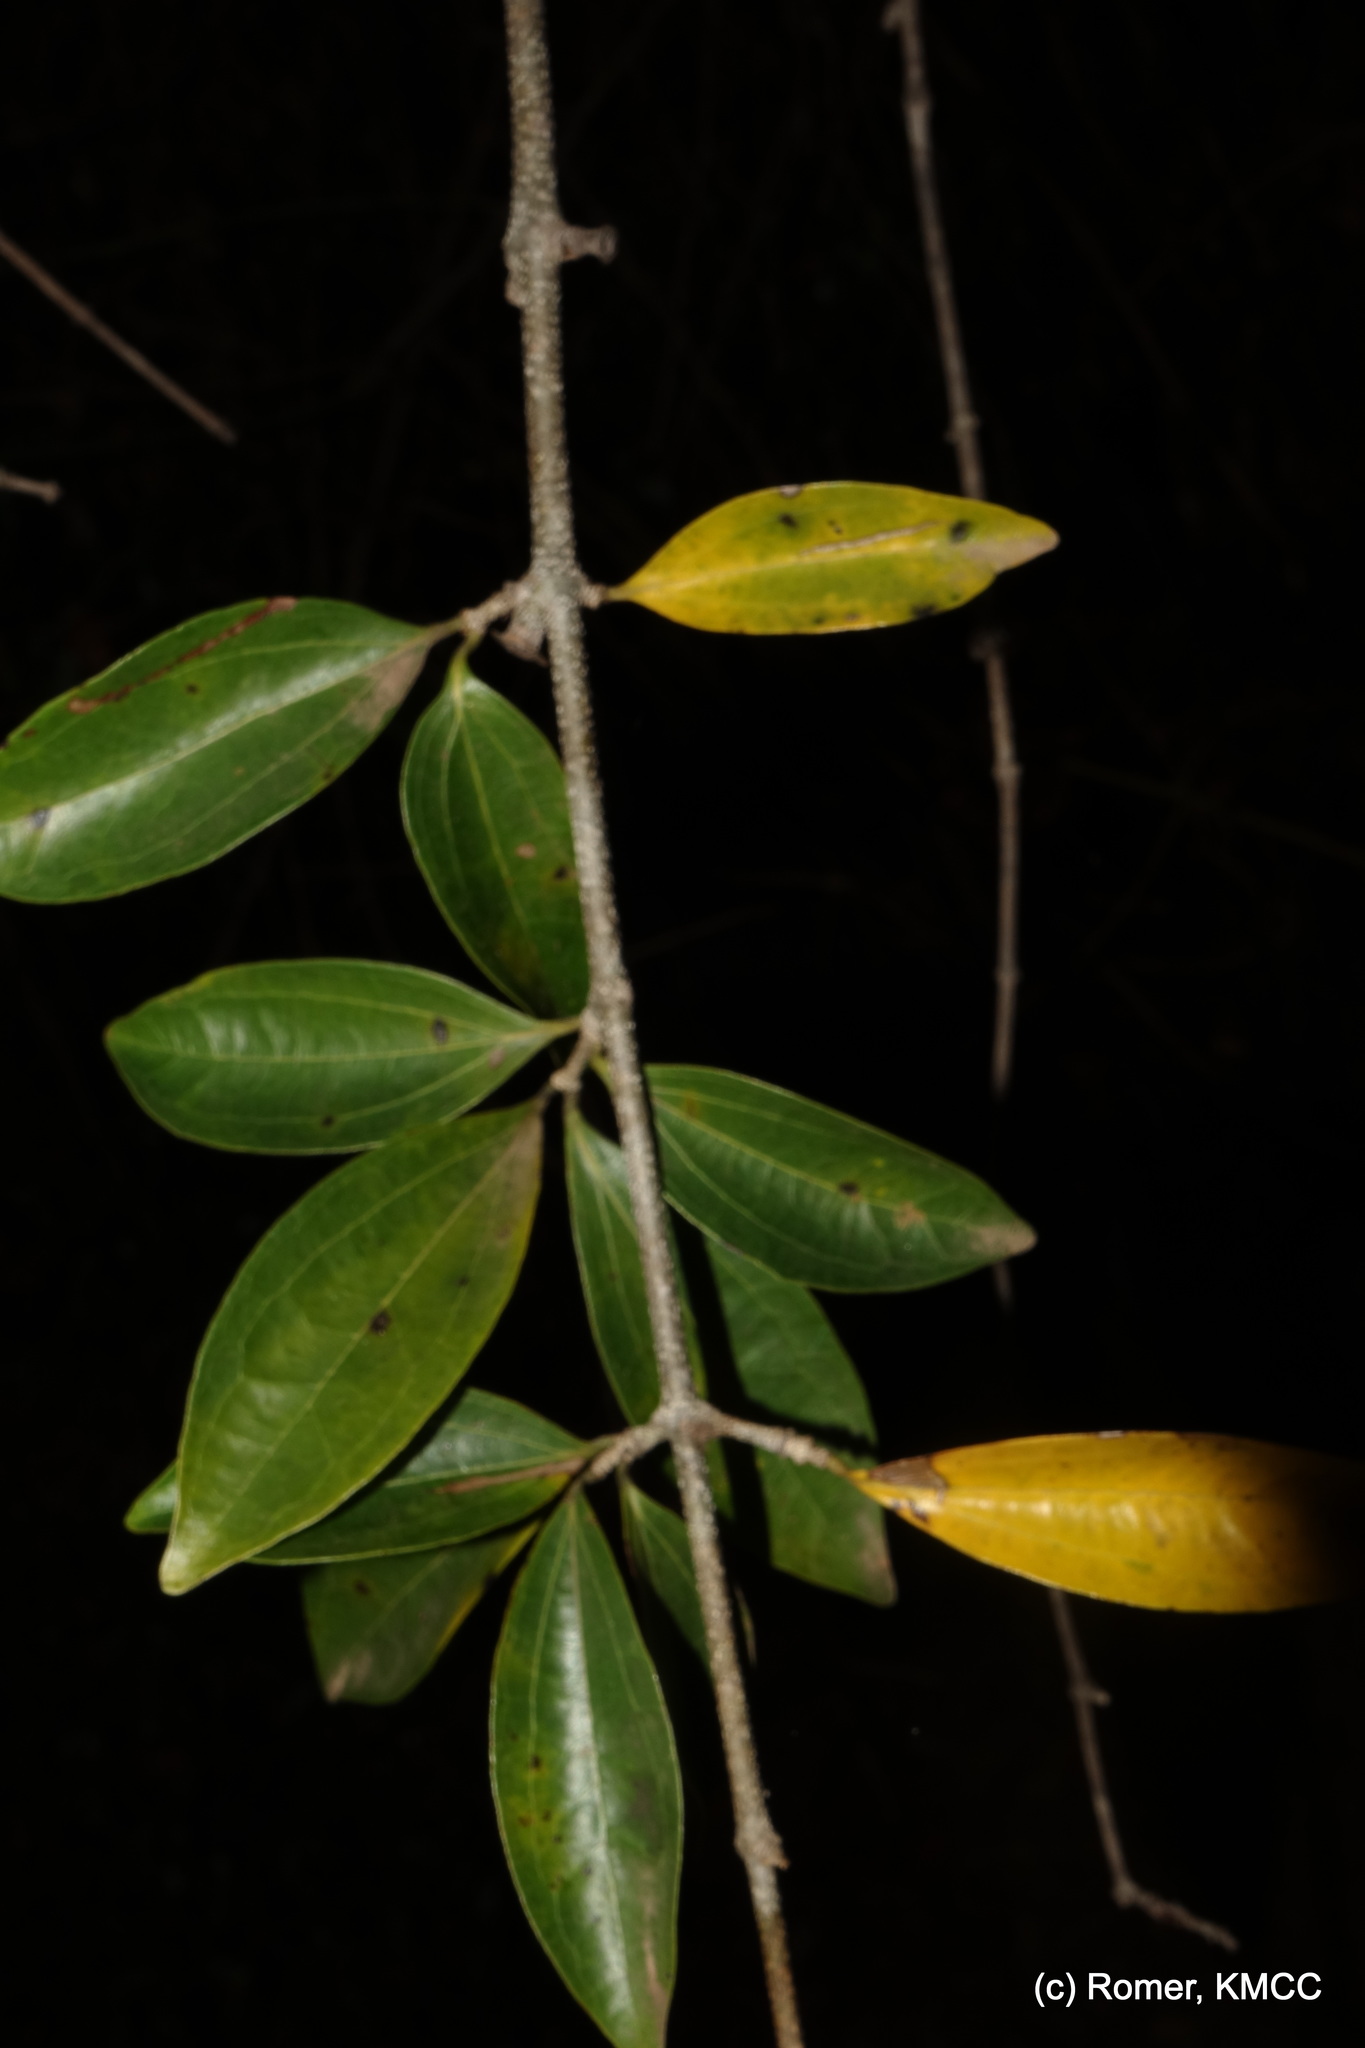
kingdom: Plantae
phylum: Tracheophyta
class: Magnoliopsida
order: Gentianales
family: Loganiaceae
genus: Strychnos
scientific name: Strychnos madagascariensis
